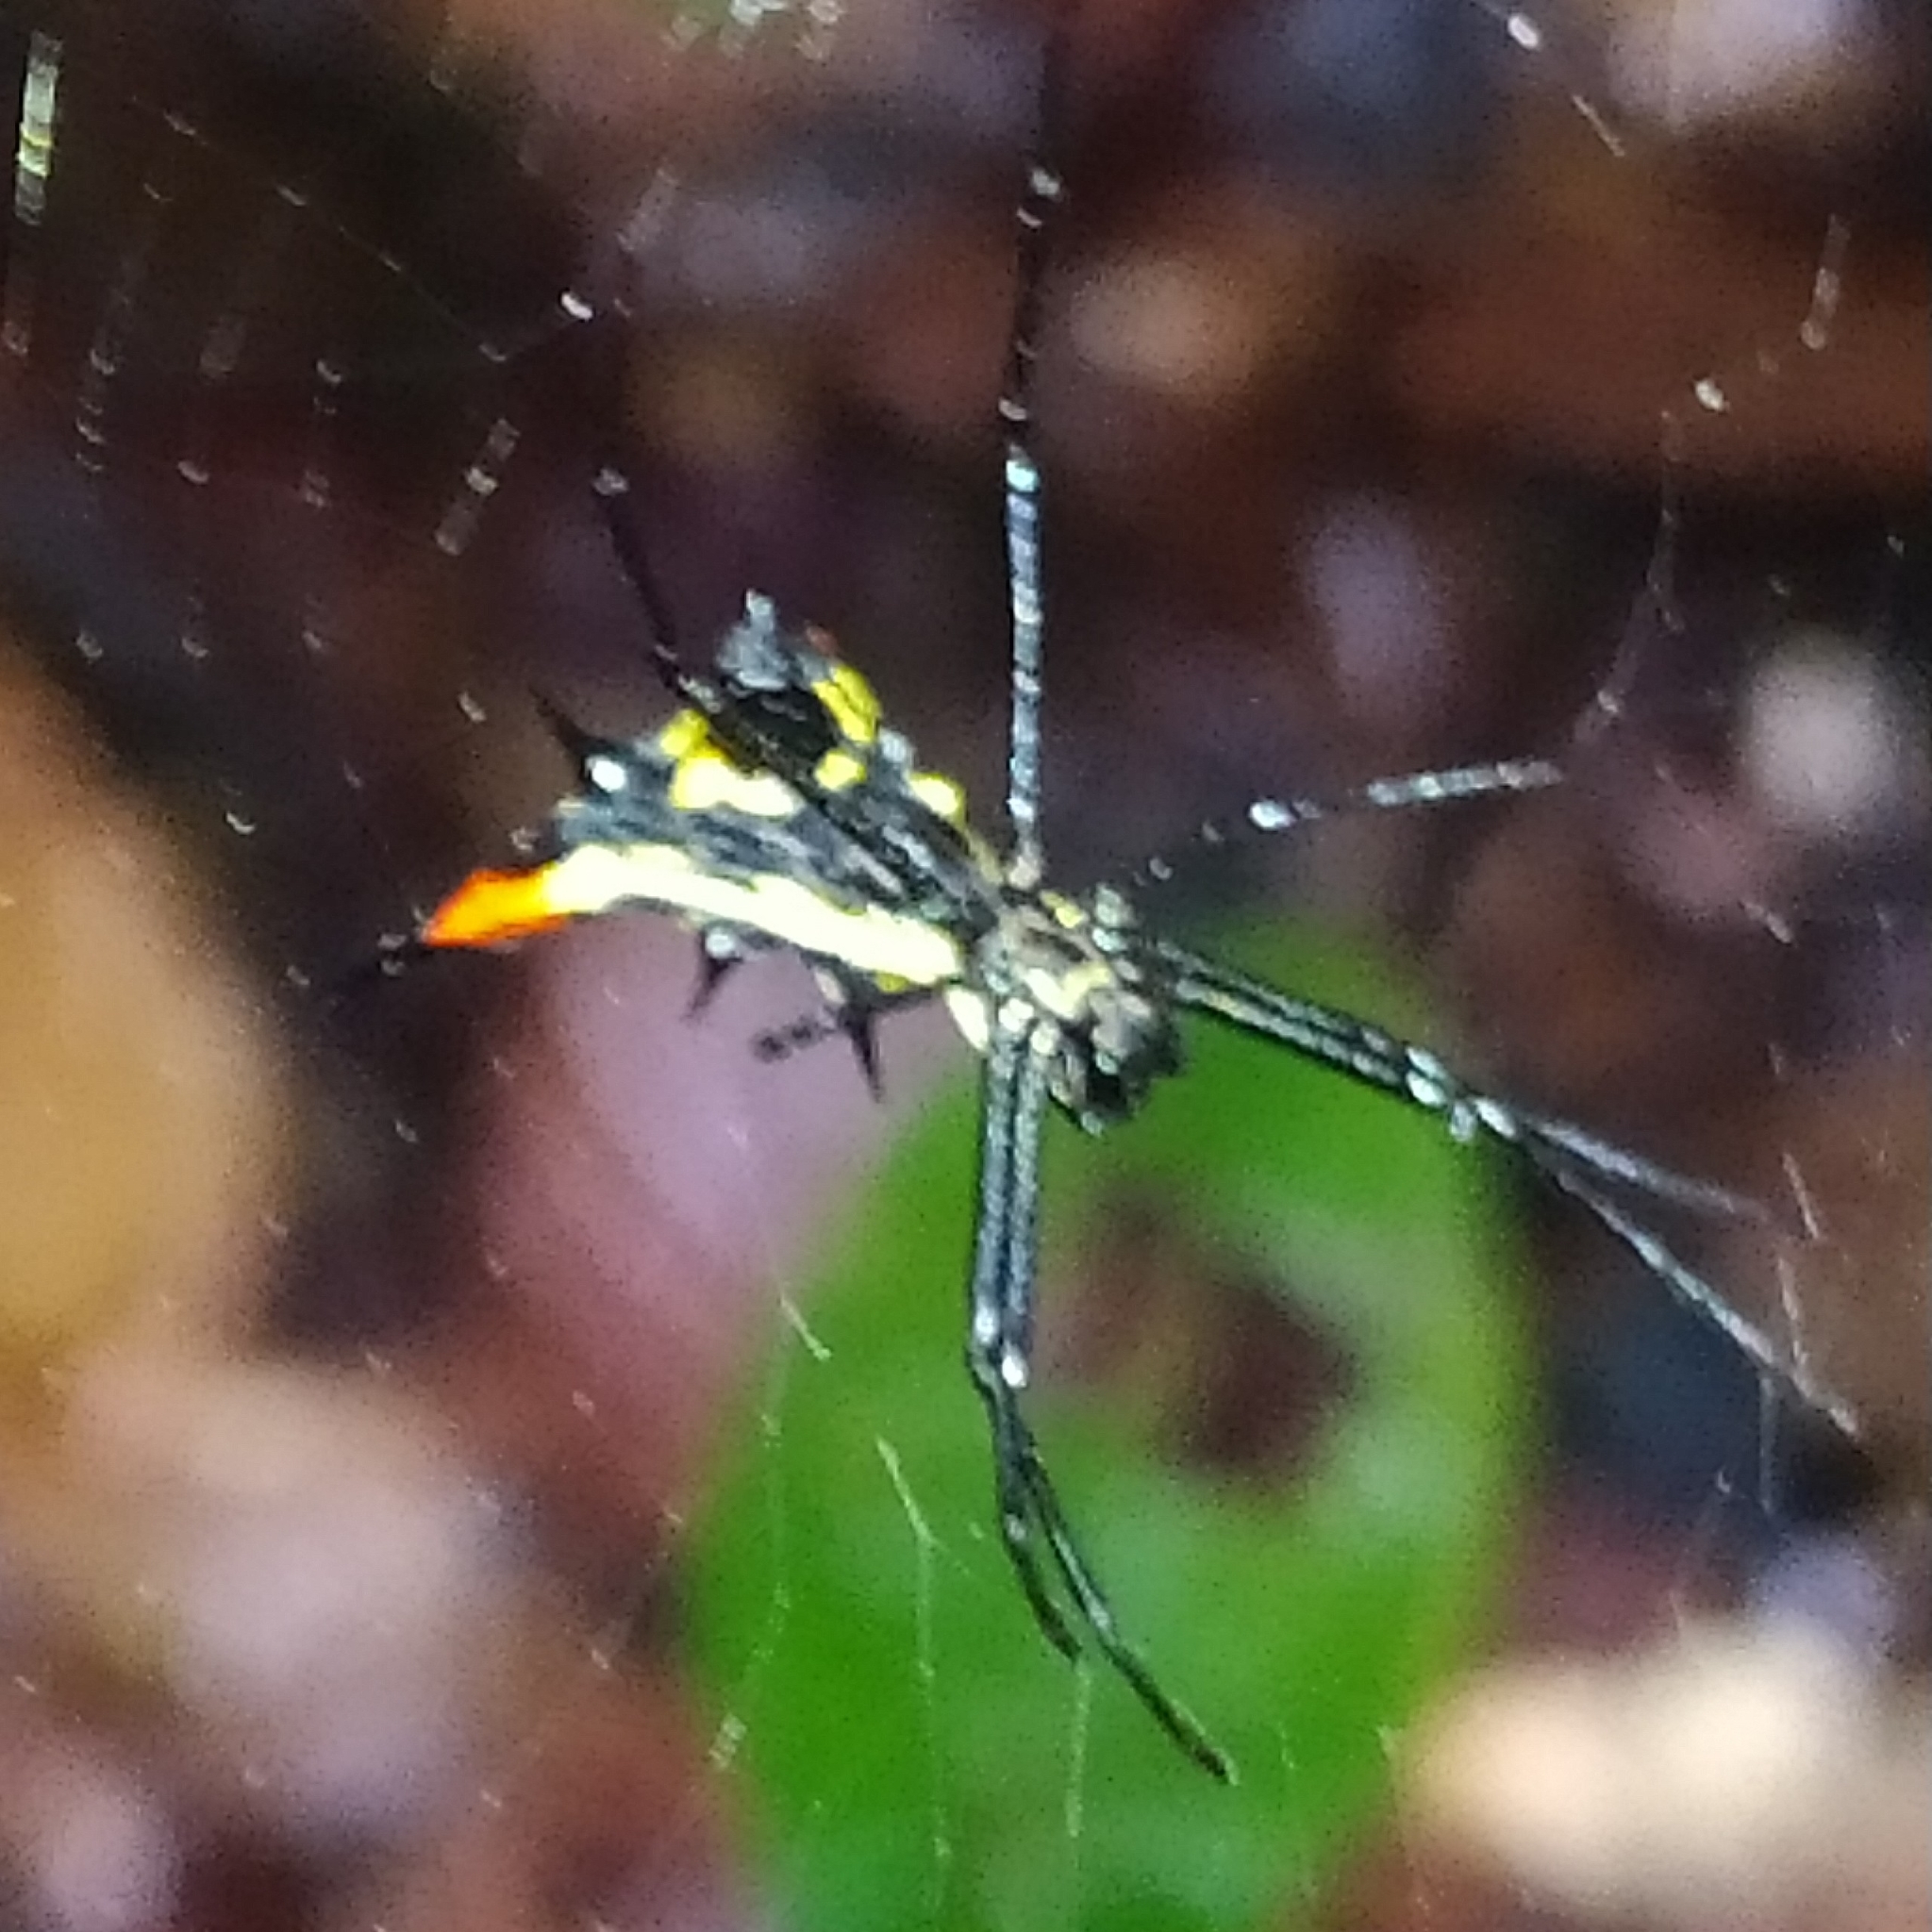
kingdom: Animalia
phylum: Arthropoda
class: Arachnida
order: Araneae
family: Araneidae
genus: Micrathena
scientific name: Micrathena schreibersi
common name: Orb weavers
